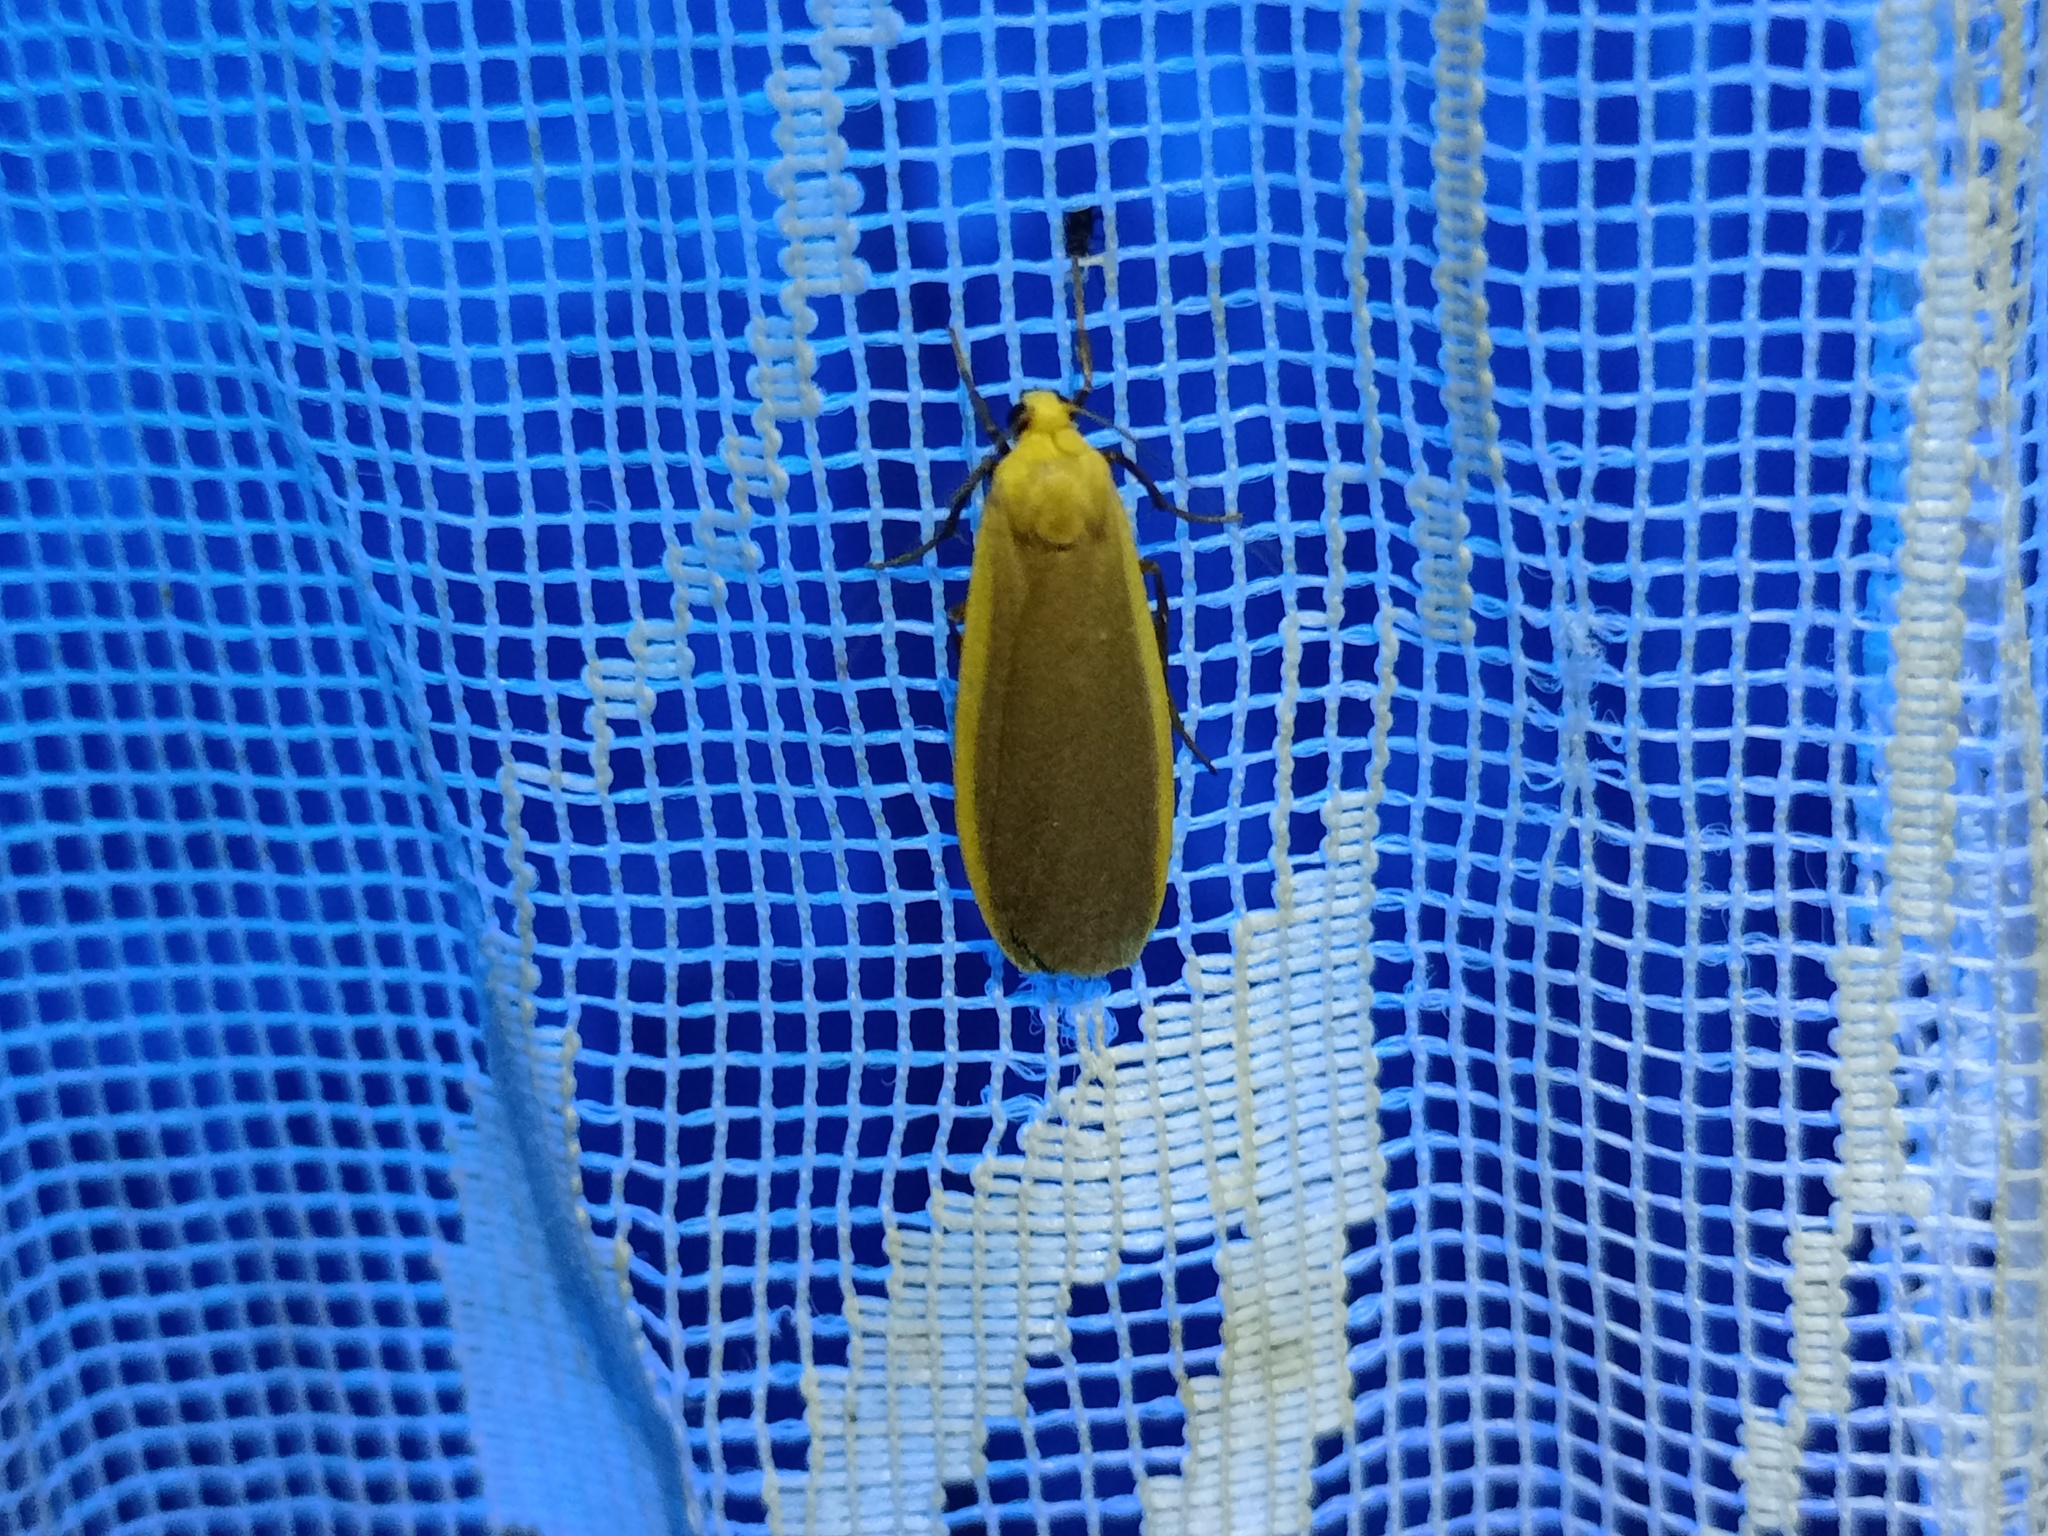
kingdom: Animalia
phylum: Arthropoda
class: Insecta
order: Lepidoptera
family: Erebidae
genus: Katha
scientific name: Katha depressa
